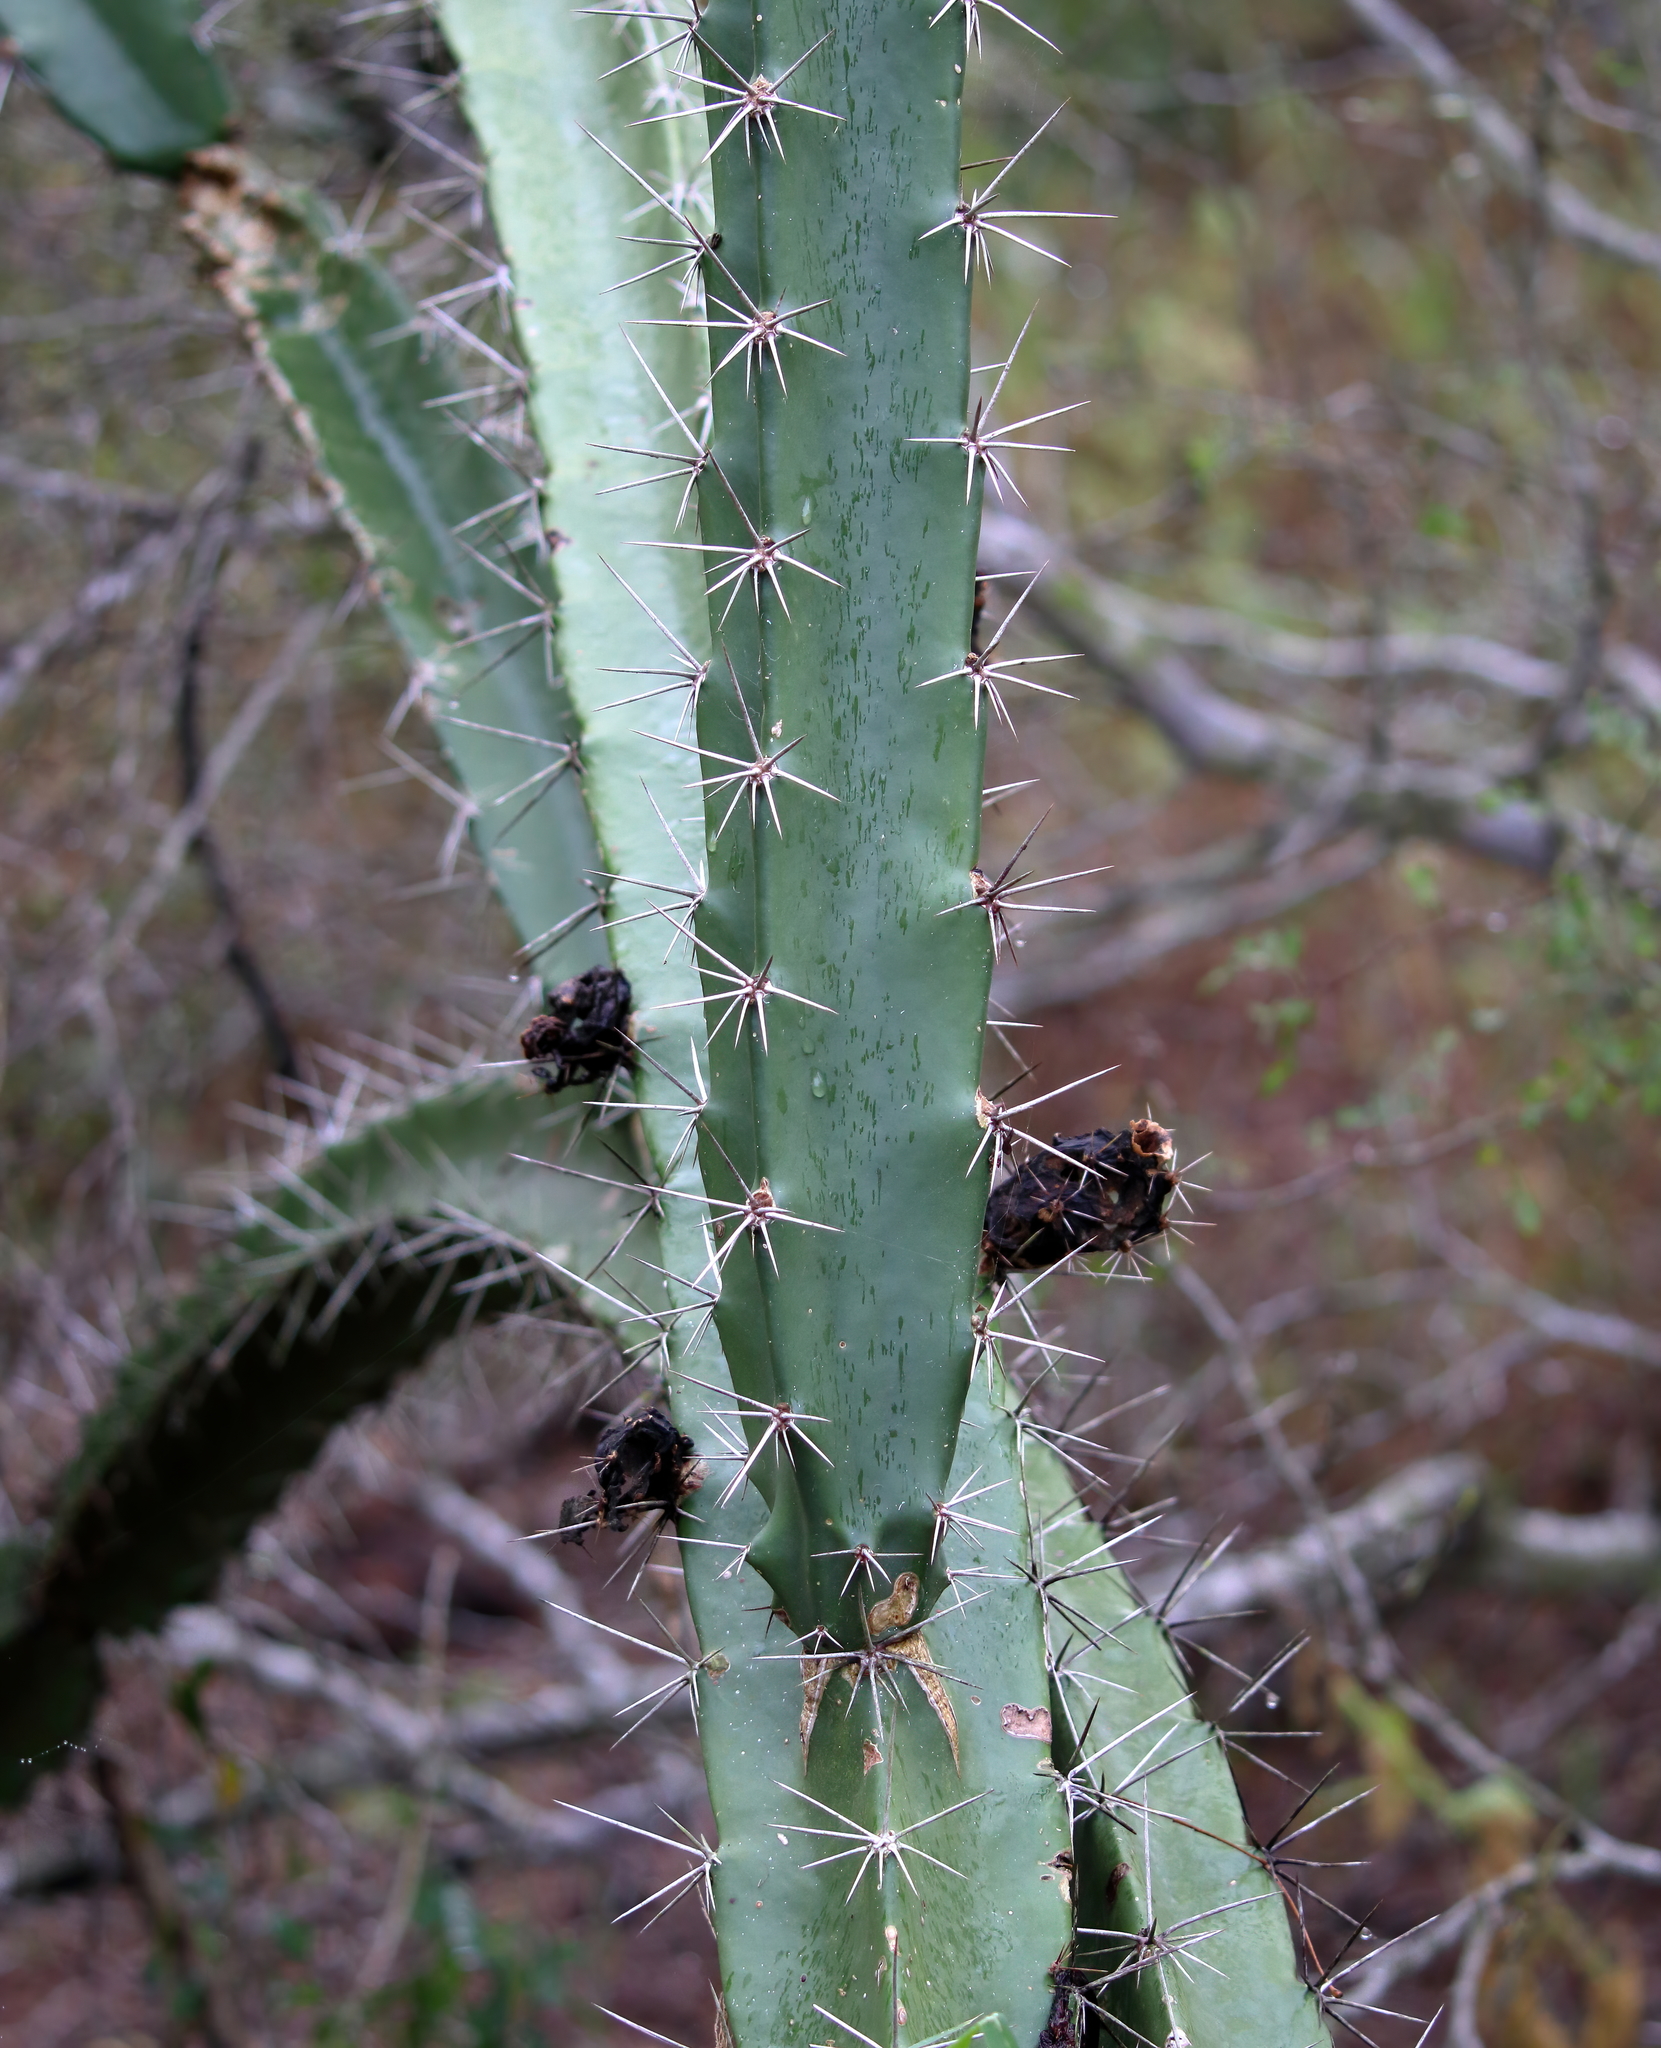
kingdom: Plantae
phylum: Tracheophyta
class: Magnoliopsida
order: Caryophyllales
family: Cactaceae
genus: Acanthocereus
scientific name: Acanthocereus tetragonus
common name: Triangle cactus
